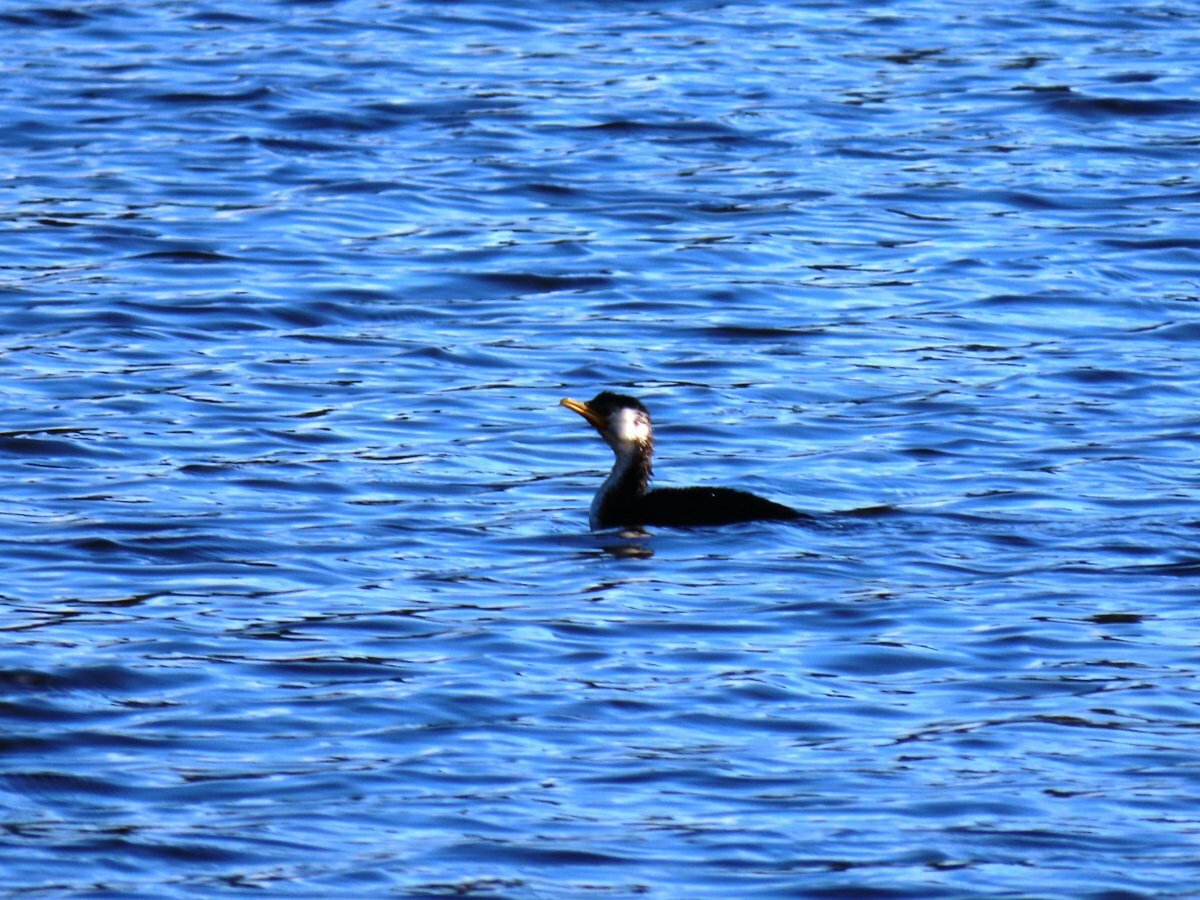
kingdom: Animalia
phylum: Chordata
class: Aves
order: Suliformes
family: Phalacrocoracidae
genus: Microcarbo
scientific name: Microcarbo melanoleucos
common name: Little pied cormorant
